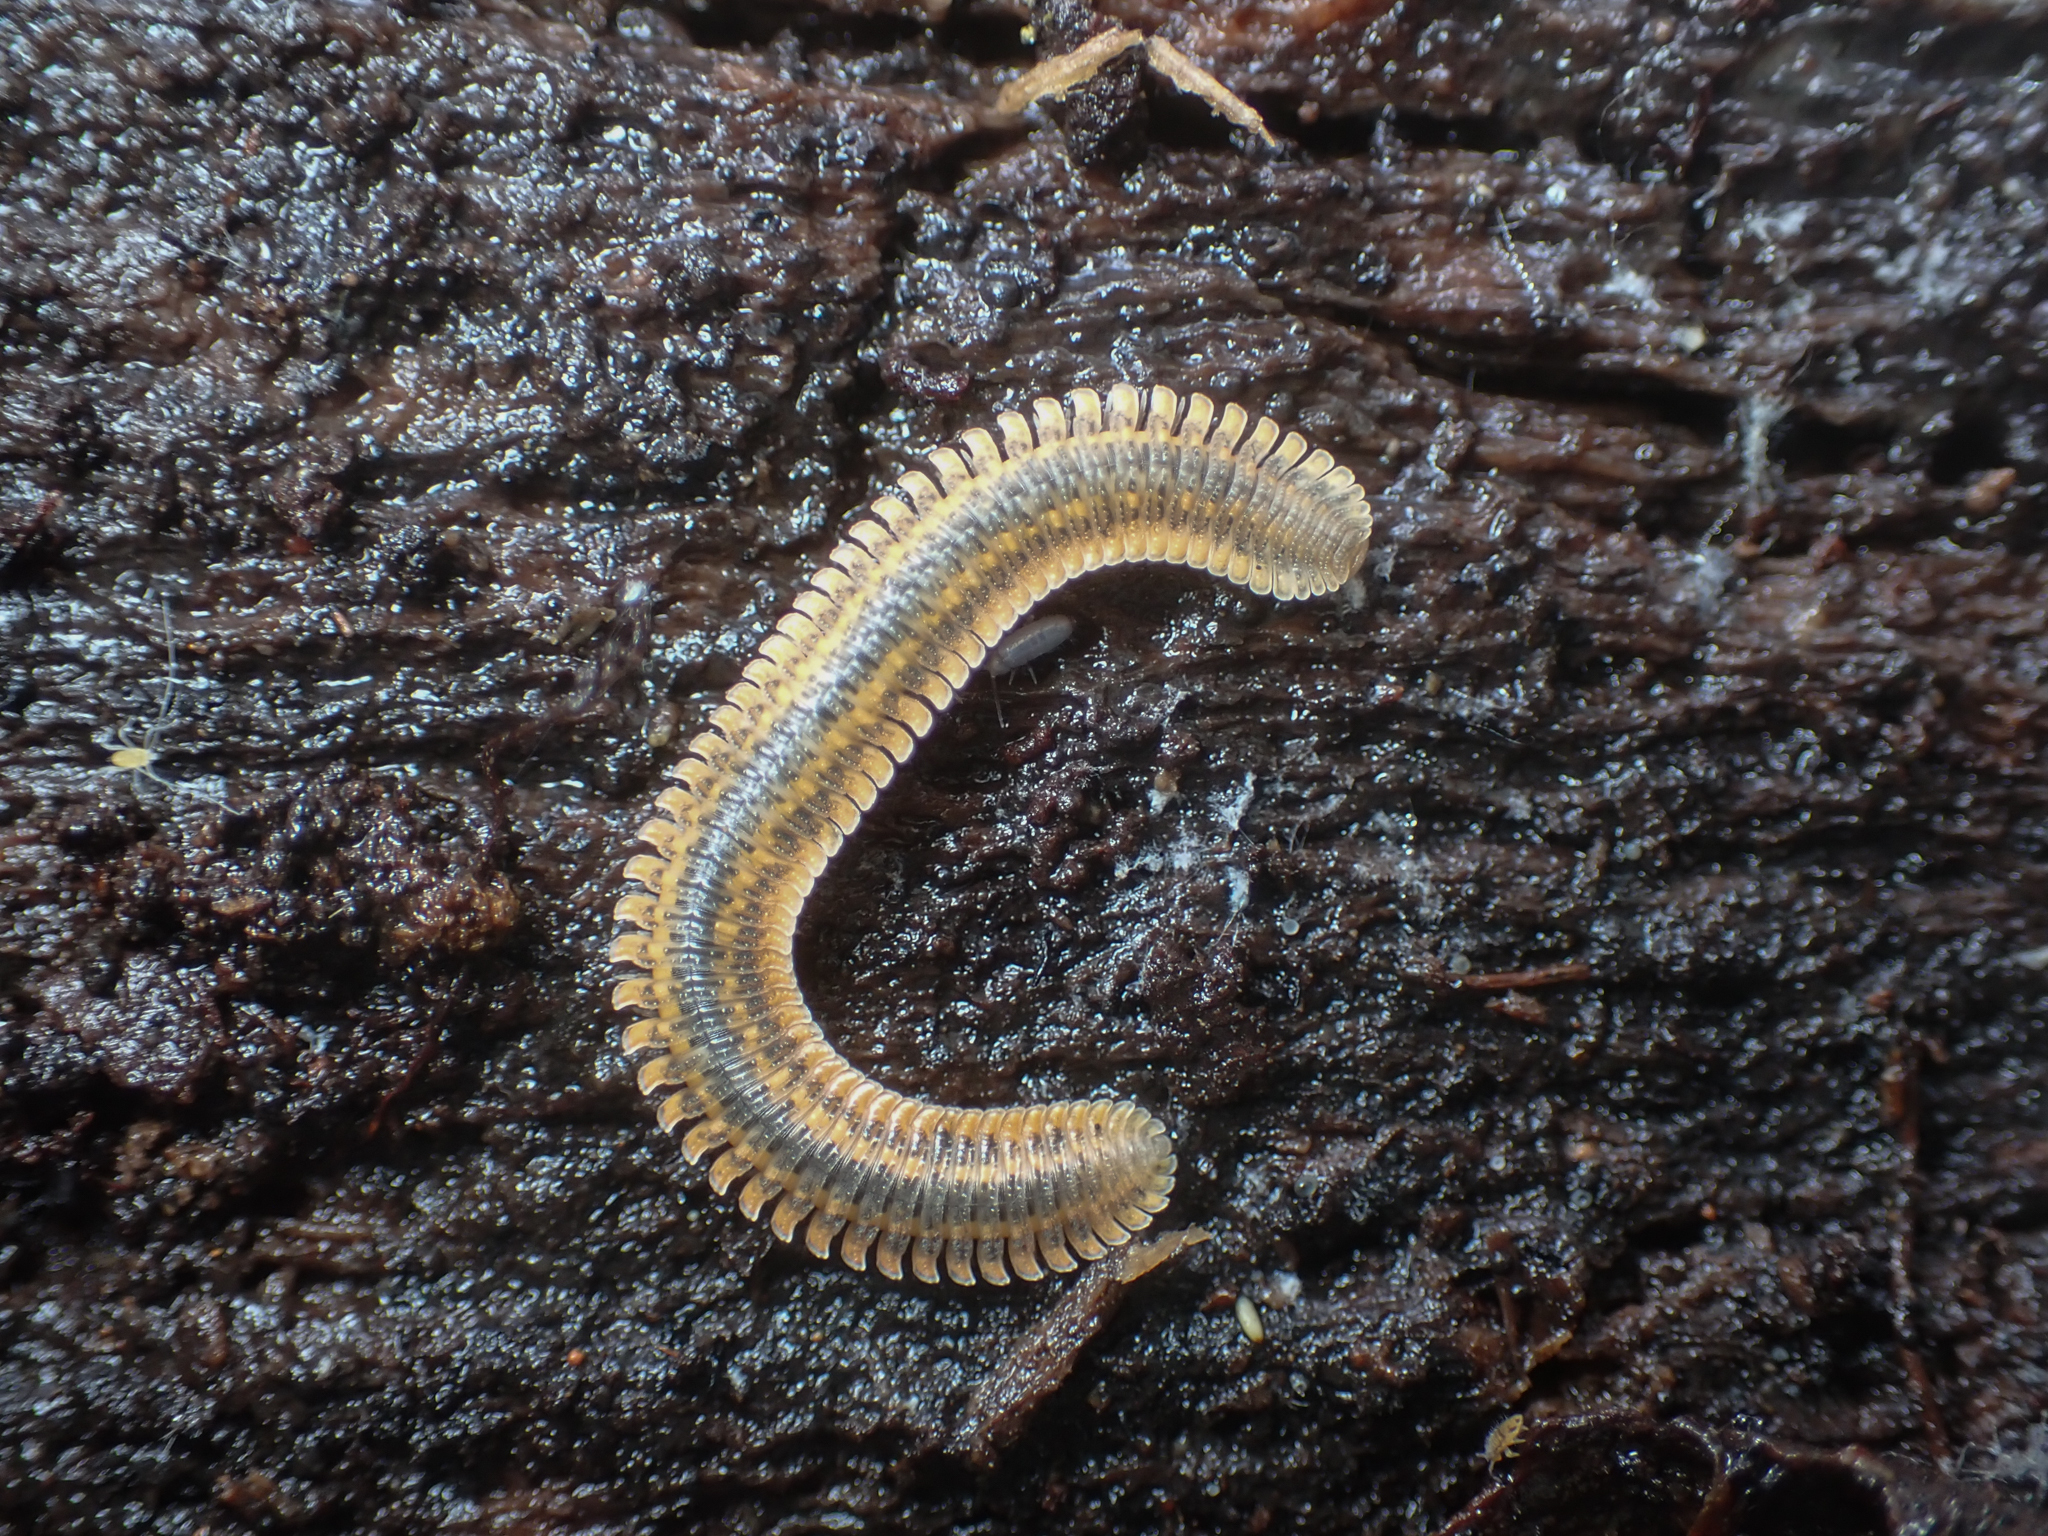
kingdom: Animalia
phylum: Arthropoda
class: Diplopoda
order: Platydesmida
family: Andrognathidae
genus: Brachycybe
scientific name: Brachycybe producta
